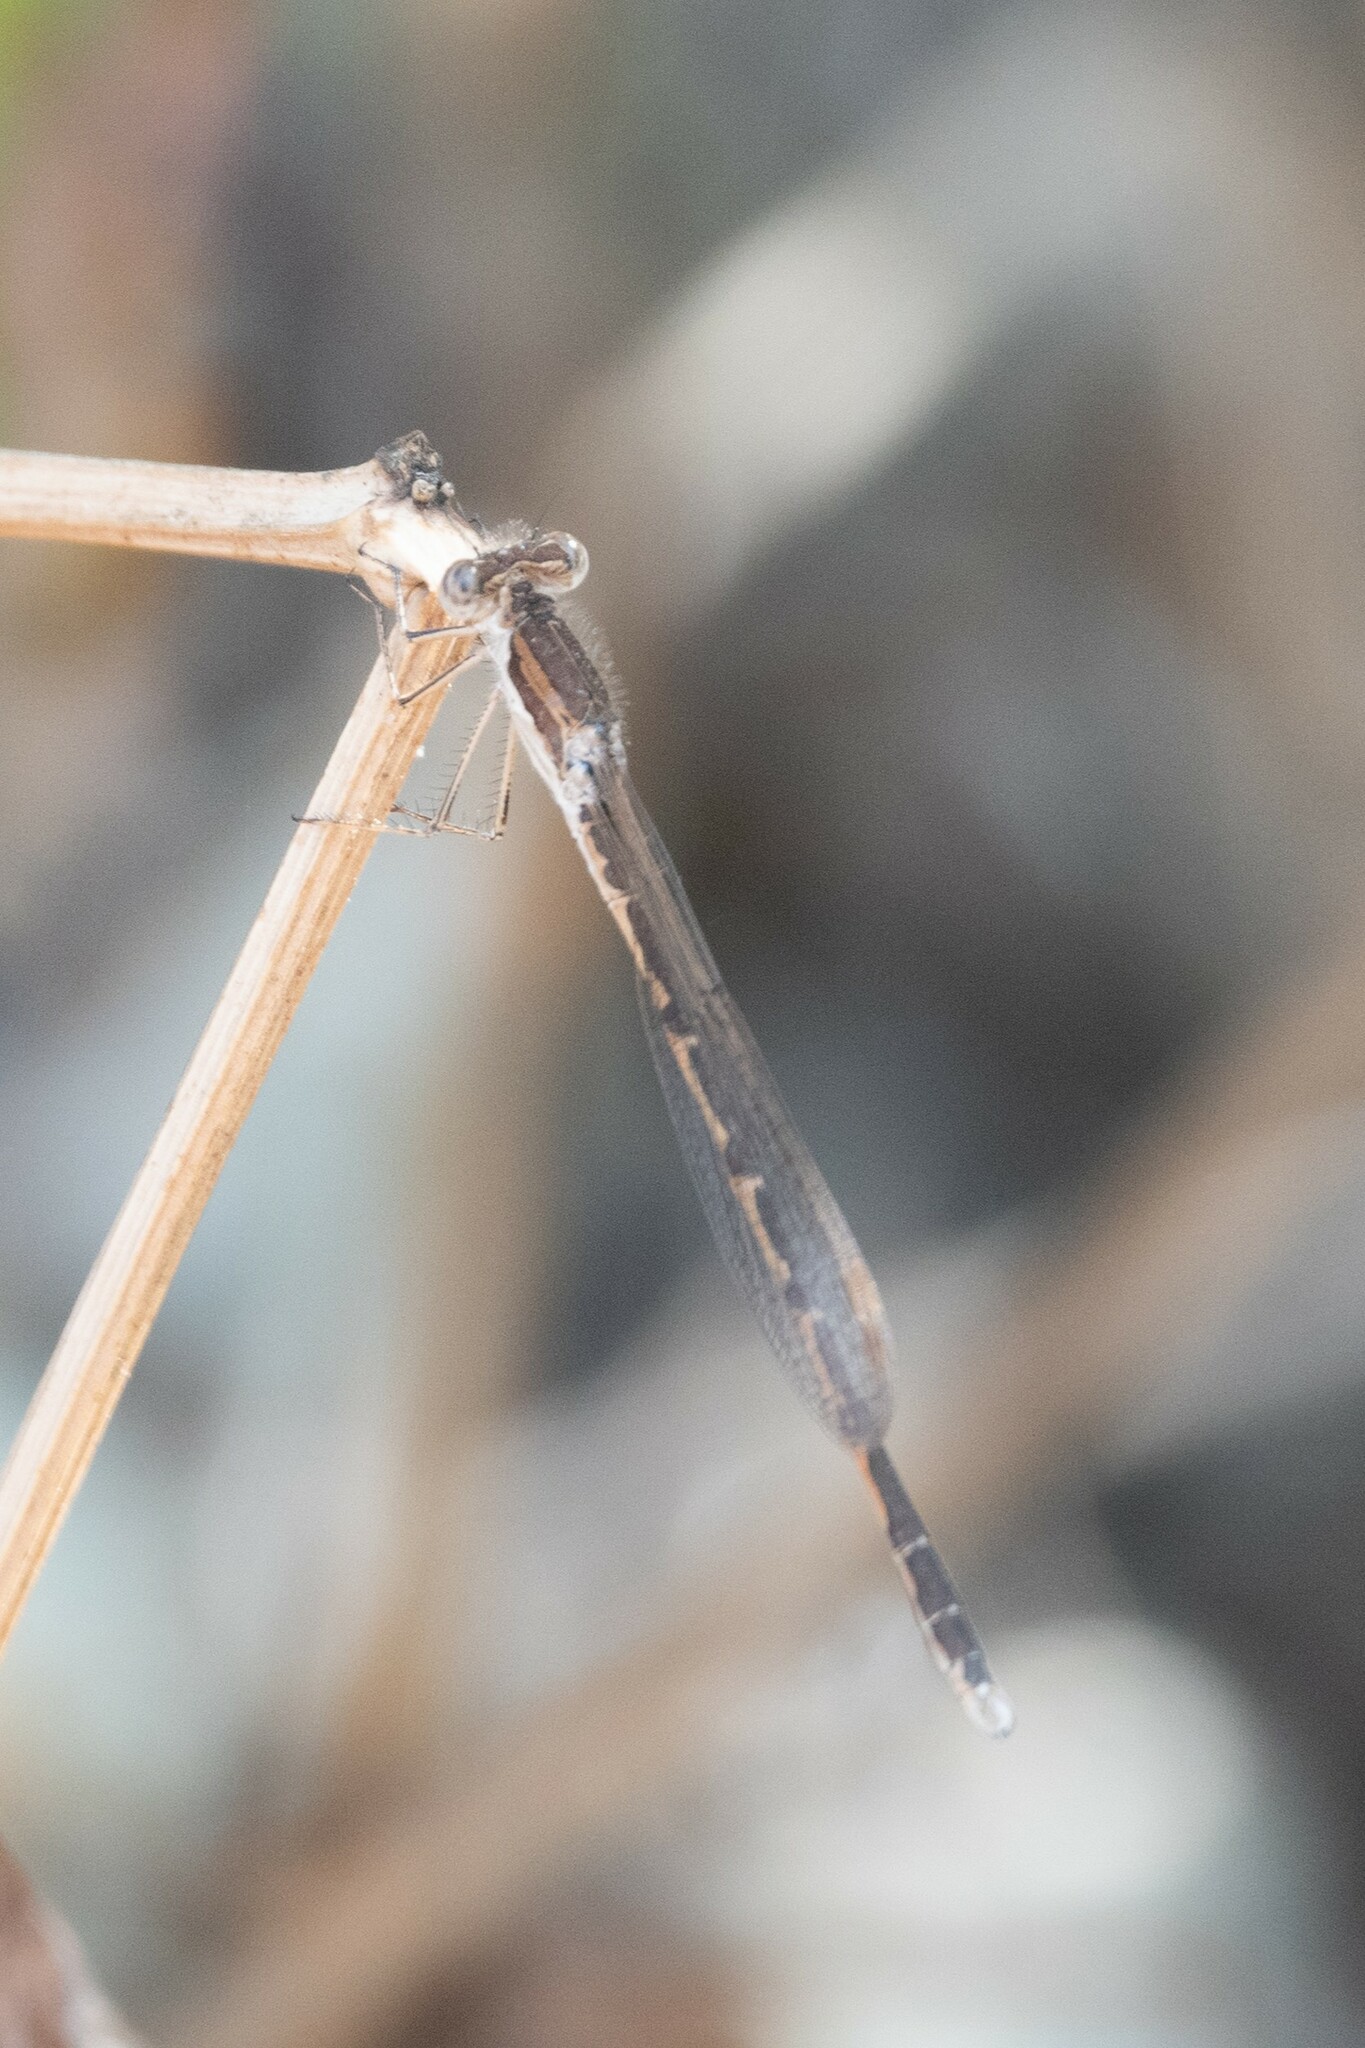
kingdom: Animalia
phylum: Arthropoda
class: Insecta
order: Odonata
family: Lestidae
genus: Sympecma
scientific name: Sympecma fusca
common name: Common winter damsel
